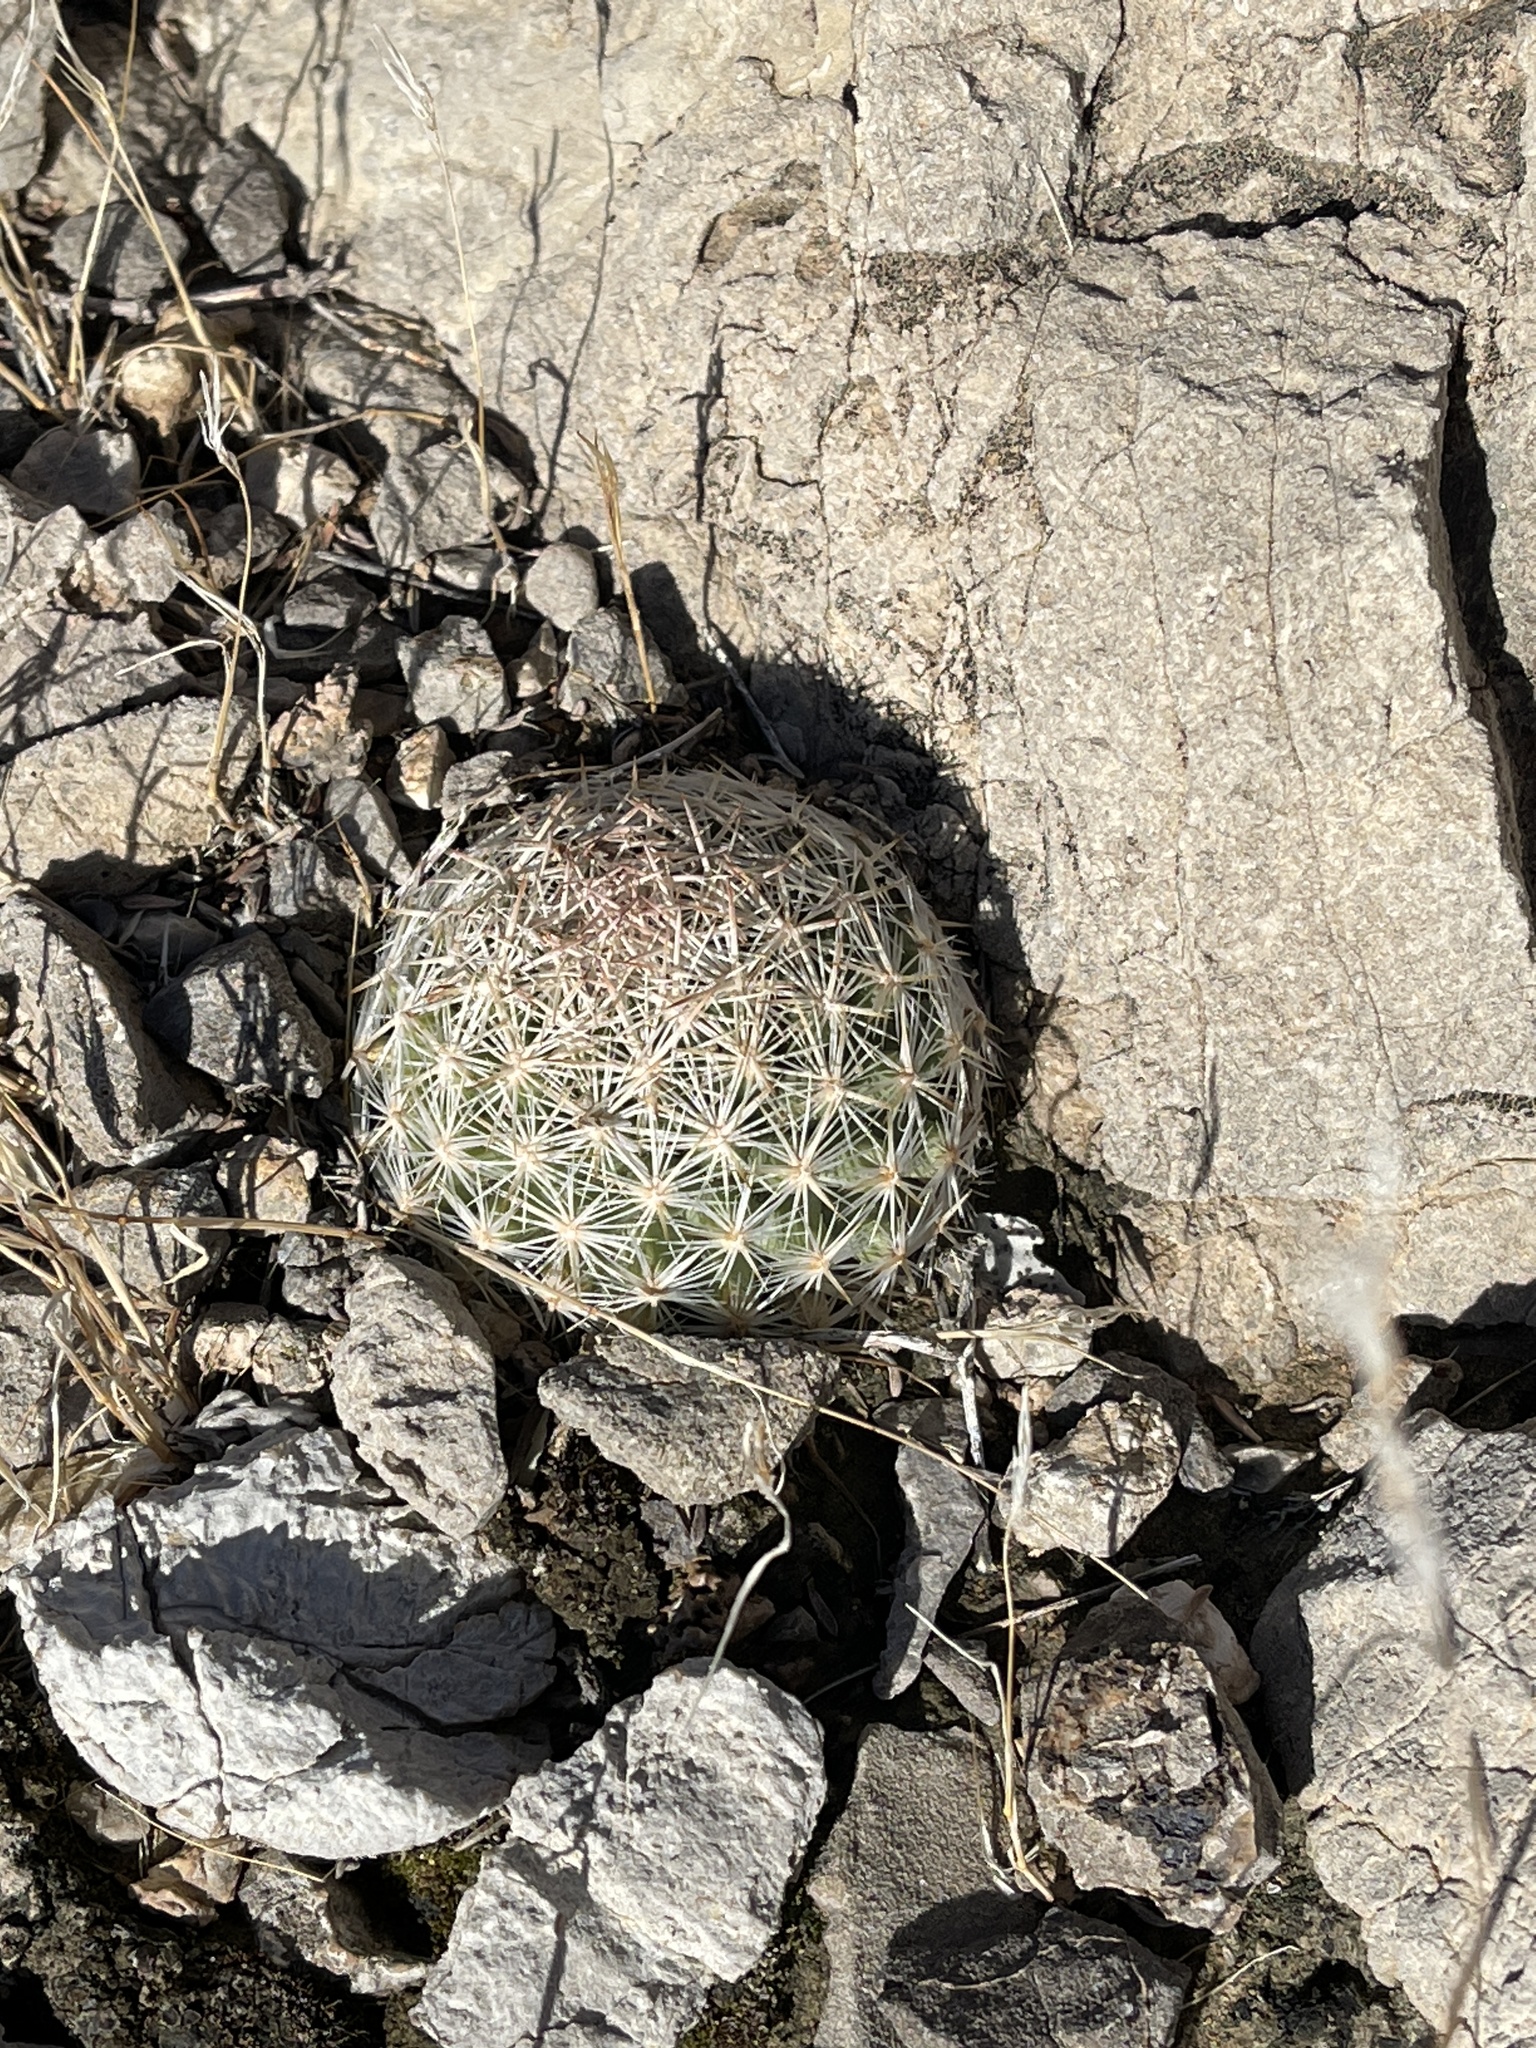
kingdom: Plantae
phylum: Tracheophyta
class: Magnoliopsida
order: Caryophyllales
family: Cactaceae
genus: Pelecyphora
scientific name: Pelecyphora vivipara
